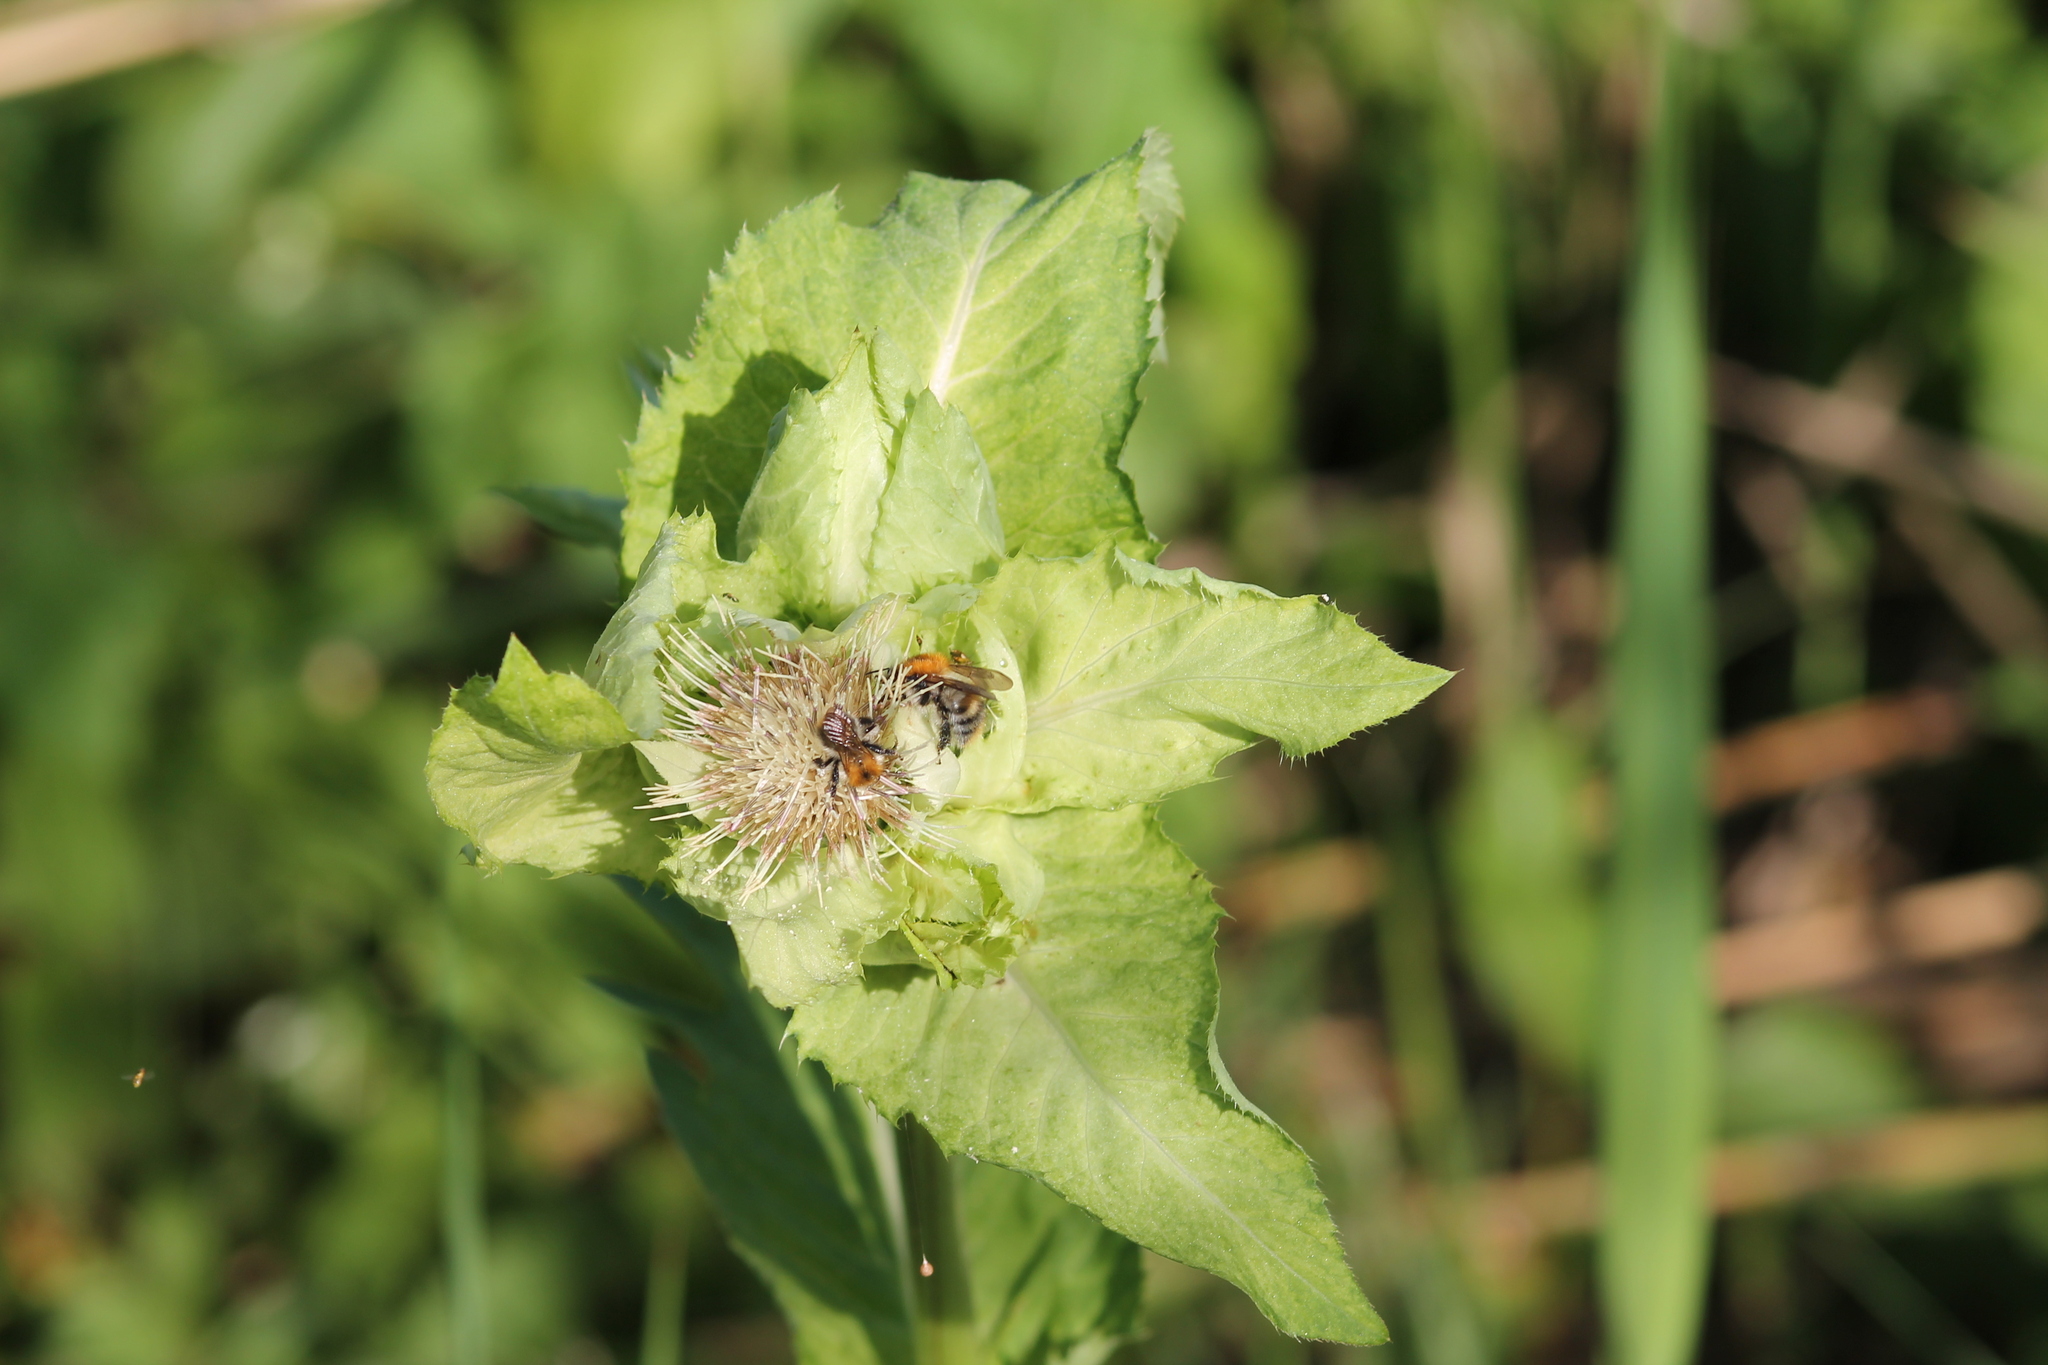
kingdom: Plantae
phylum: Tracheophyta
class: Magnoliopsida
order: Asterales
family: Asteraceae
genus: Cirsium
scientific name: Cirsium oleraceum
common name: Cabbage thistle
